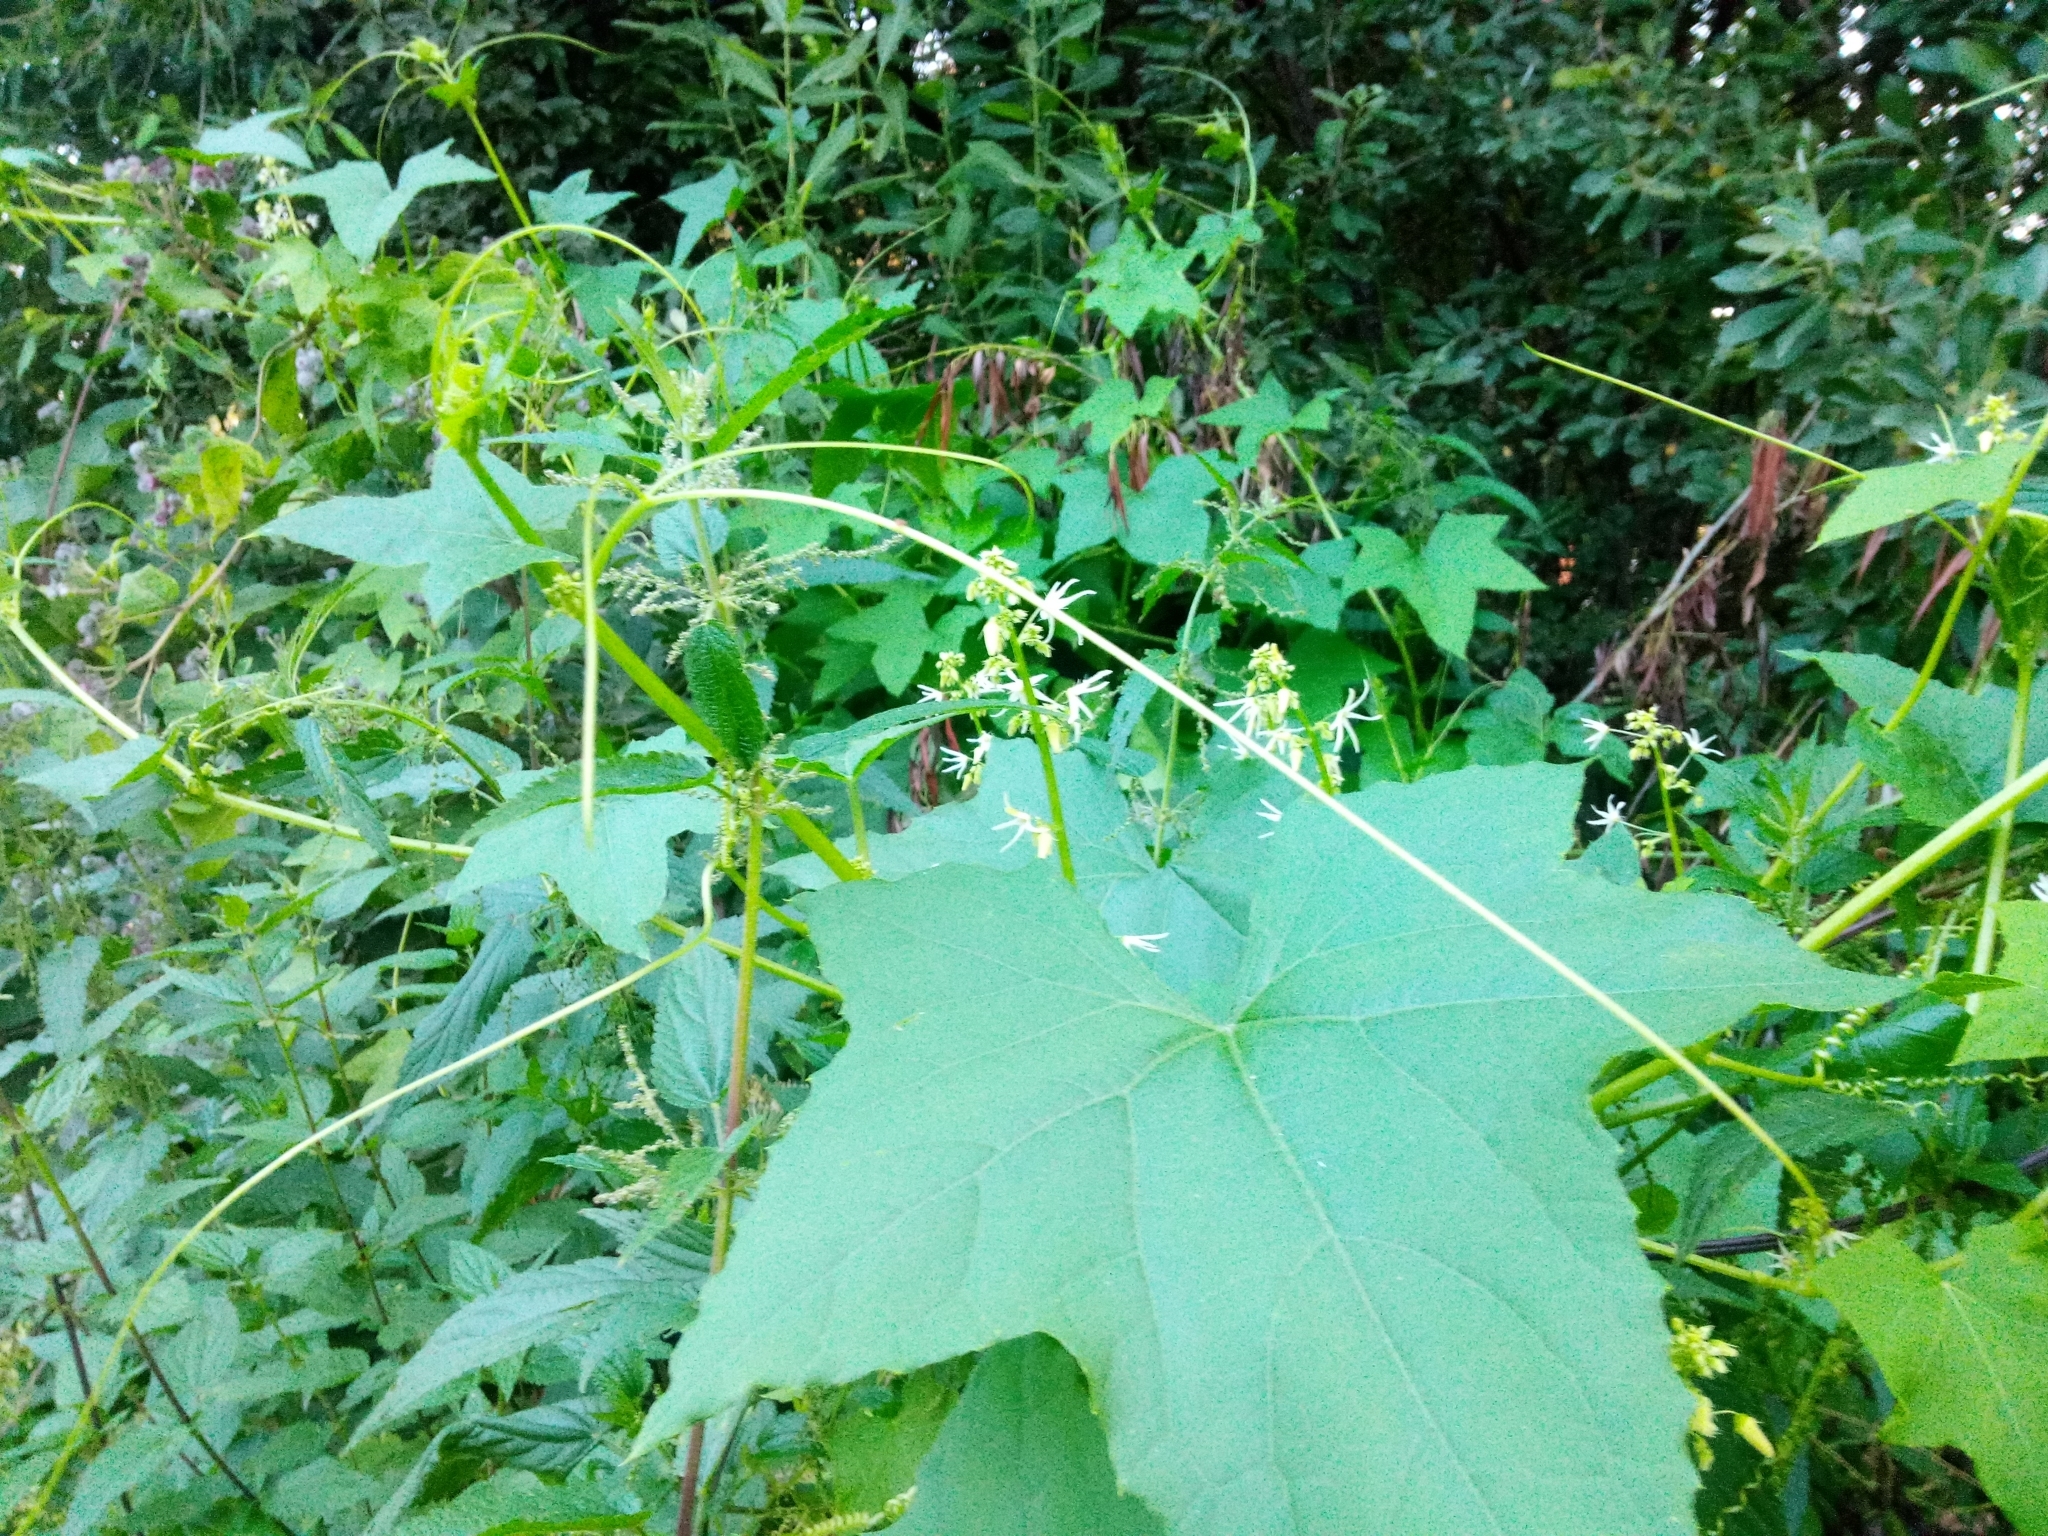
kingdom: Plantae
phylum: Tracheophyta
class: Magnoliopsida
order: Cucurbitales
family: Cucurbitaceae
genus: Echinocystis
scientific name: Echinocystis lobata
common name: Wild cucumber
